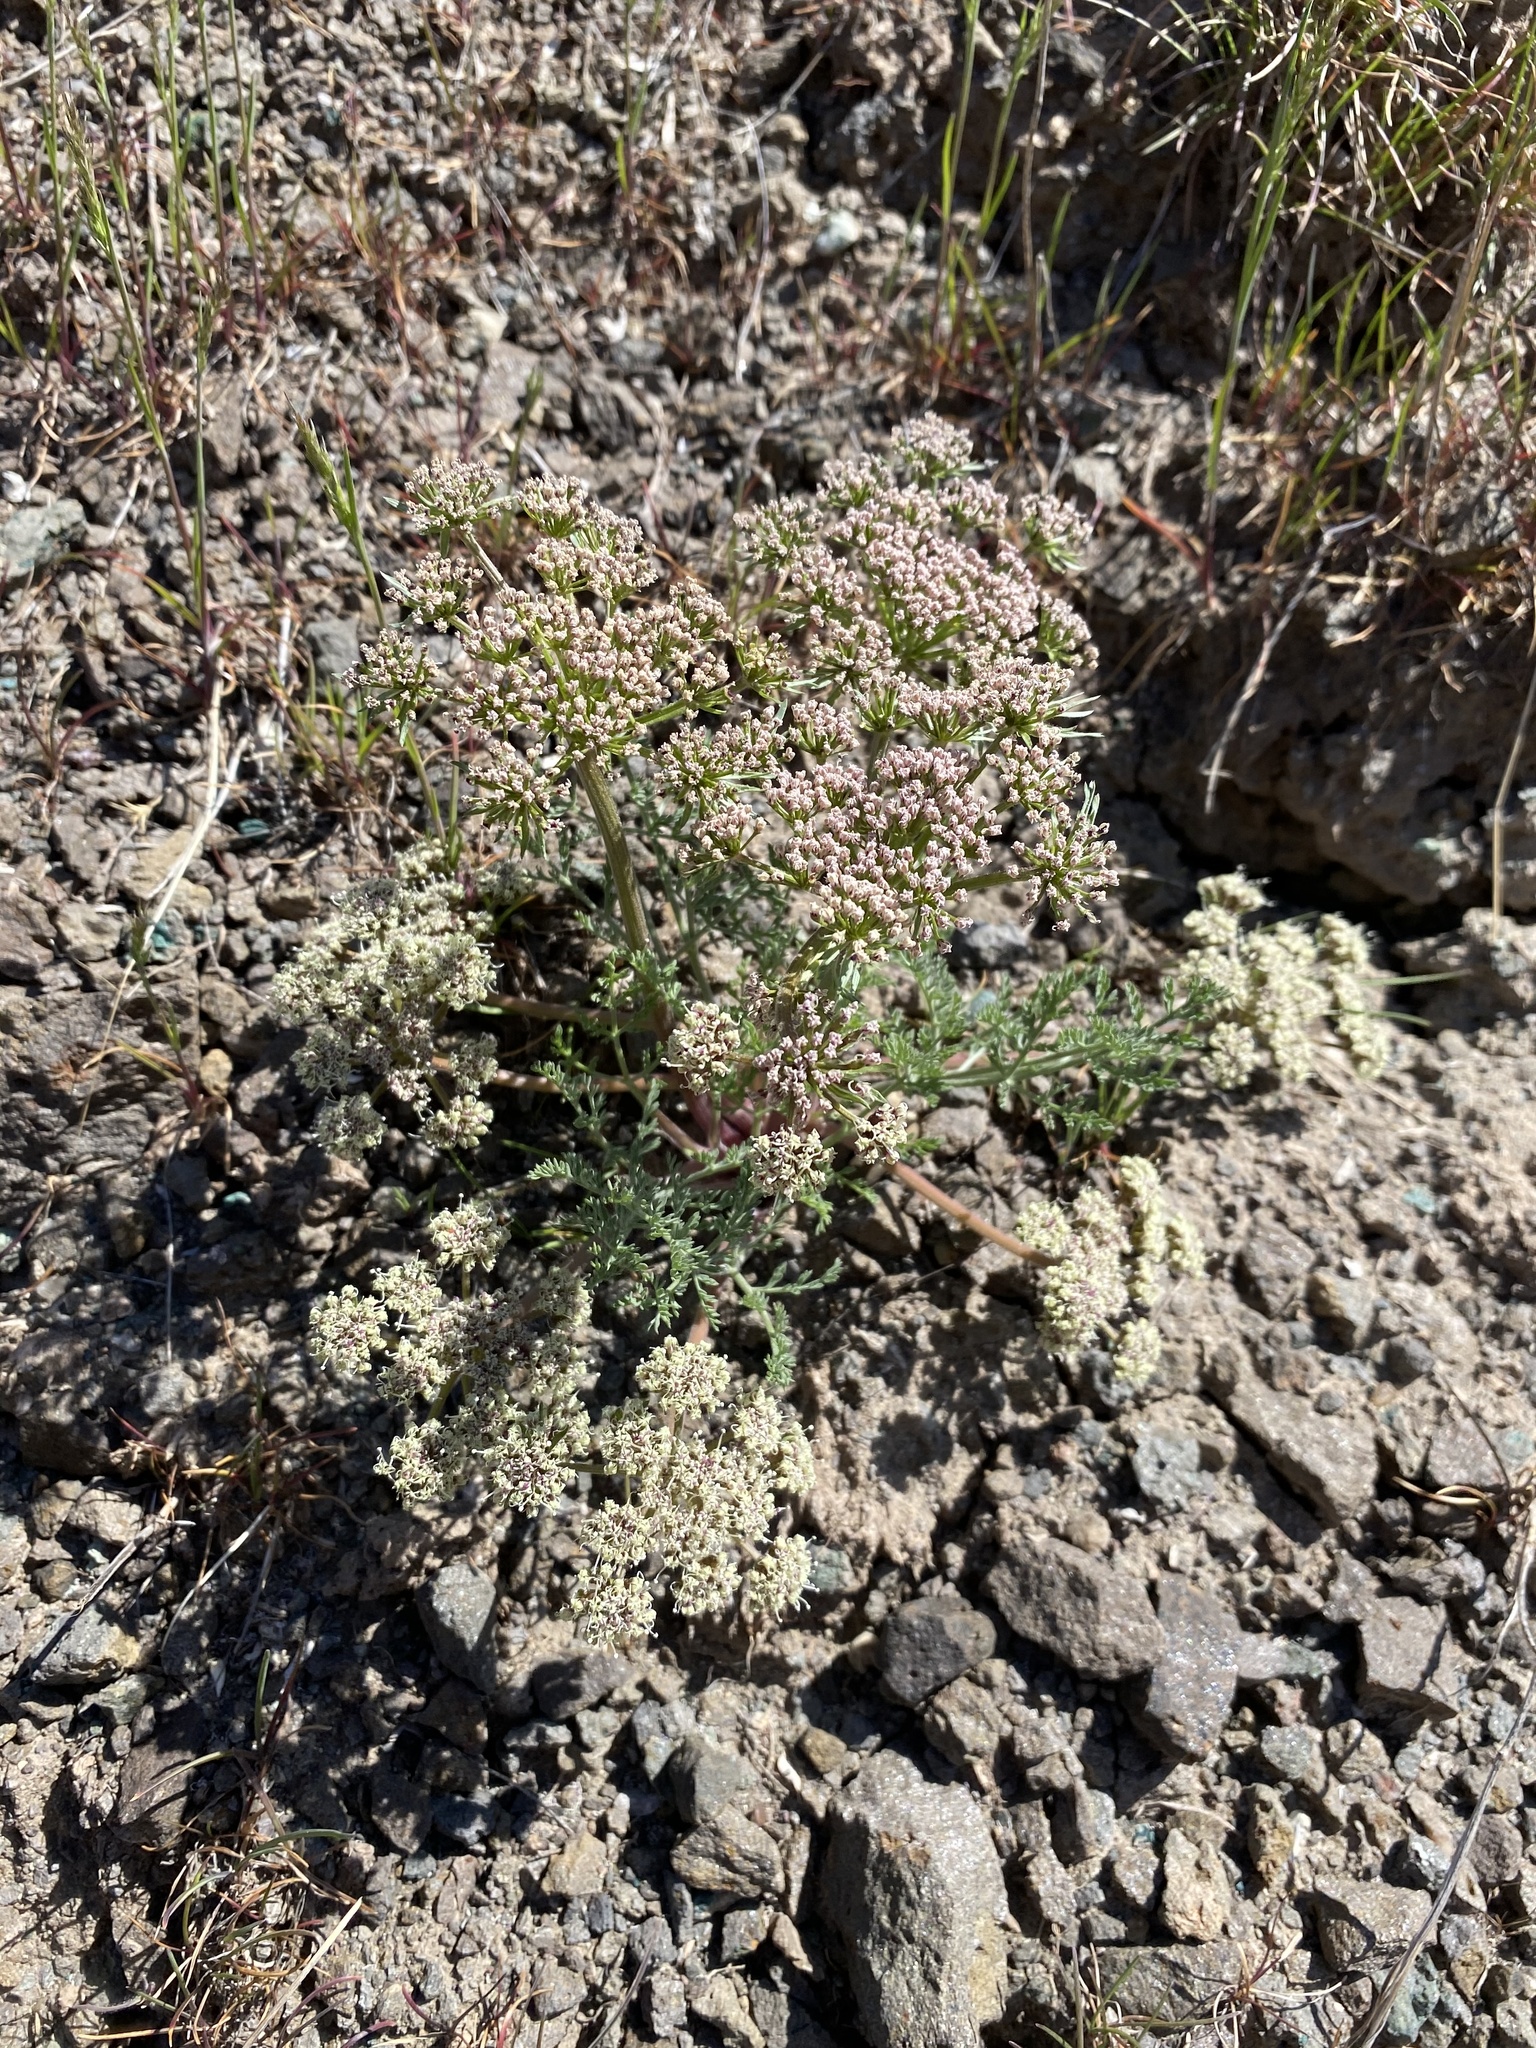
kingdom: Plantae
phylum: Tracheophyta
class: Magnoliopsida
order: Apiales
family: Apiaceae
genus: Lomatium
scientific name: Lomatium macrocarpum
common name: Big-seed biscuitroot
